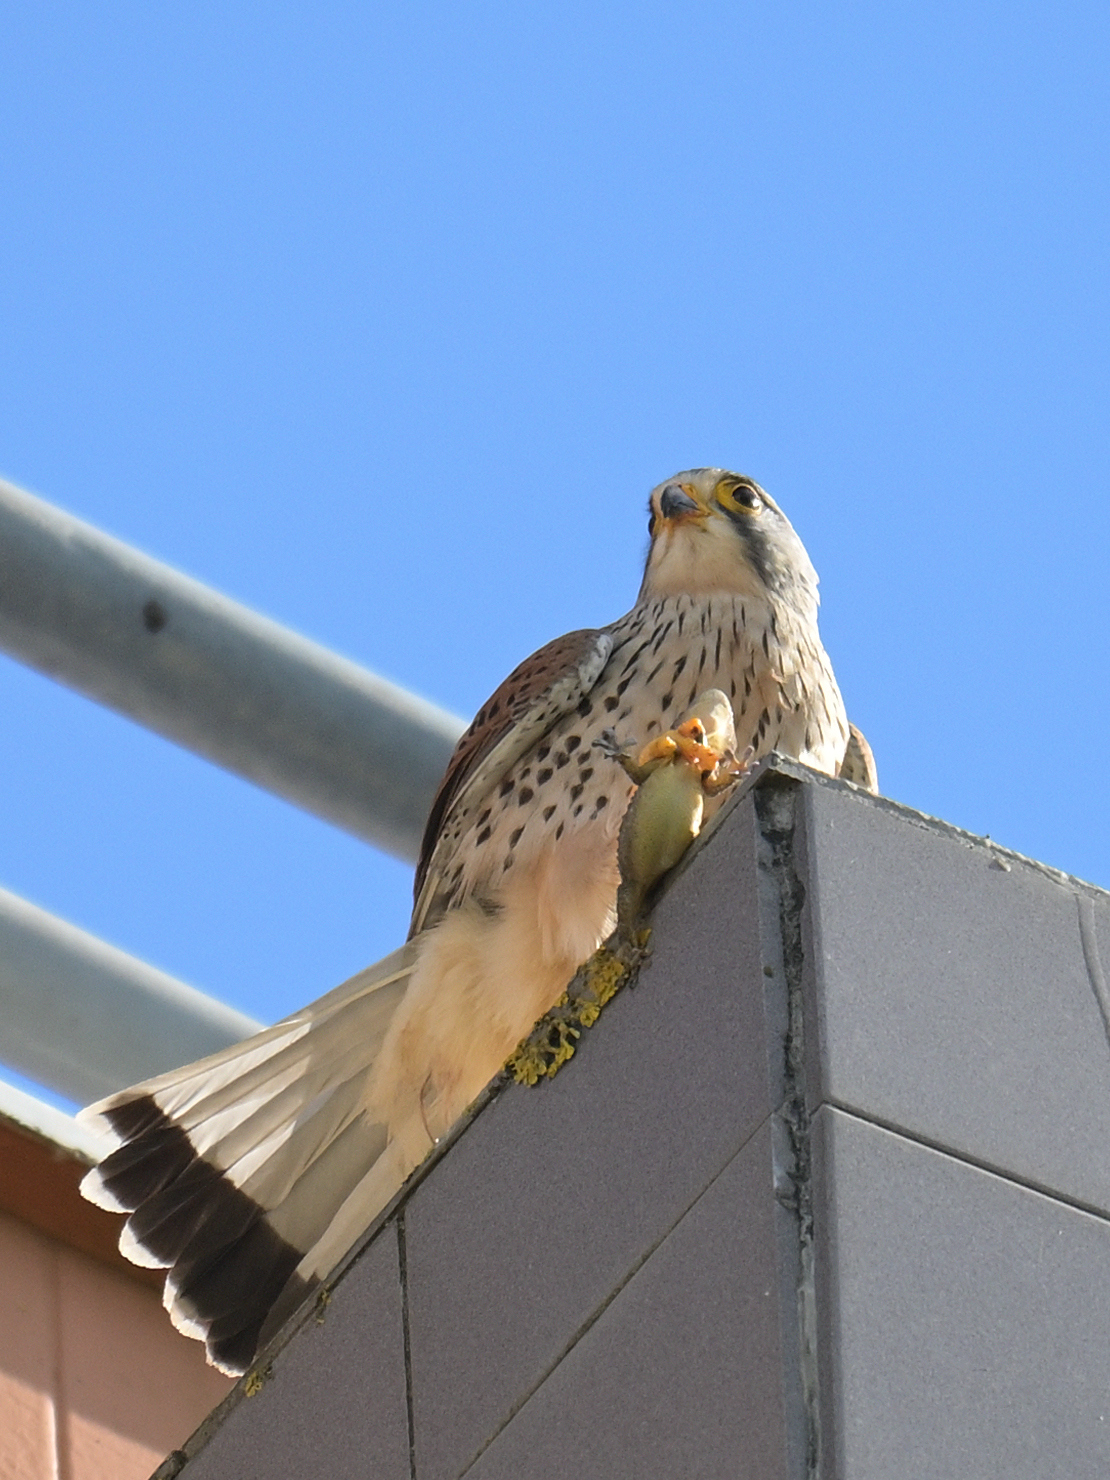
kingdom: Animalia
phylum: Chordata
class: Aves
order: Falconiformes
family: Falconidae
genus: Falco
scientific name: Falco tinnunculus
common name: Common kestrel
